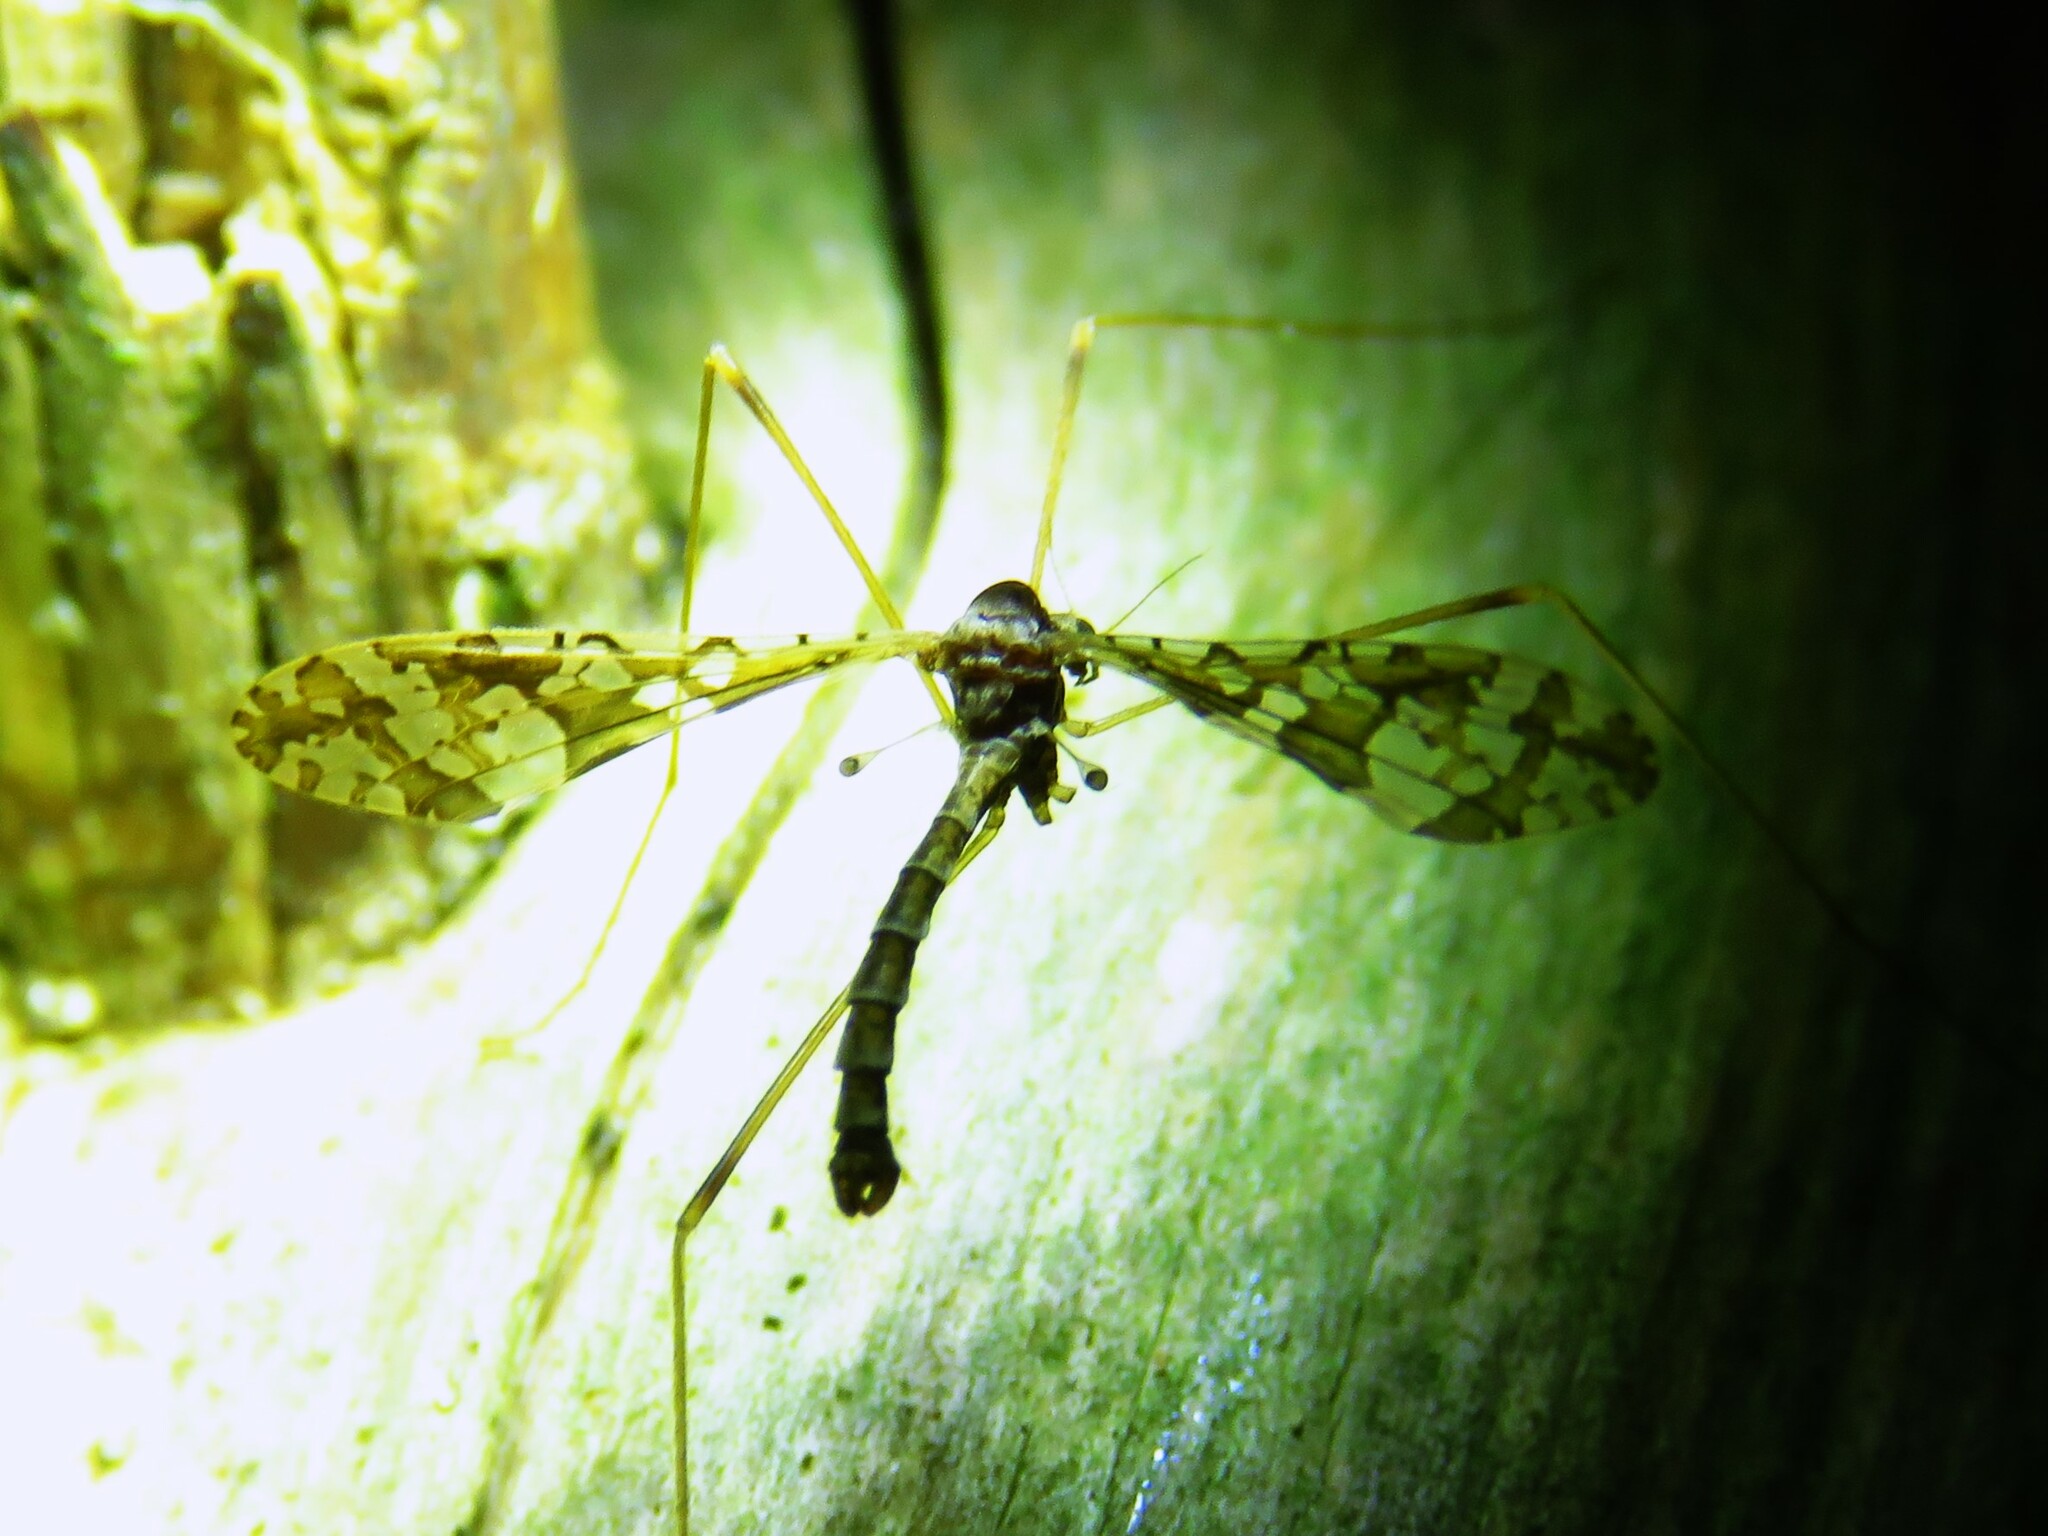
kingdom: Animalia
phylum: Arthropoda
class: Insecta
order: Diptera
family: Limoniidae
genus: Epiphragma
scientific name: Epiphragma solatrix
